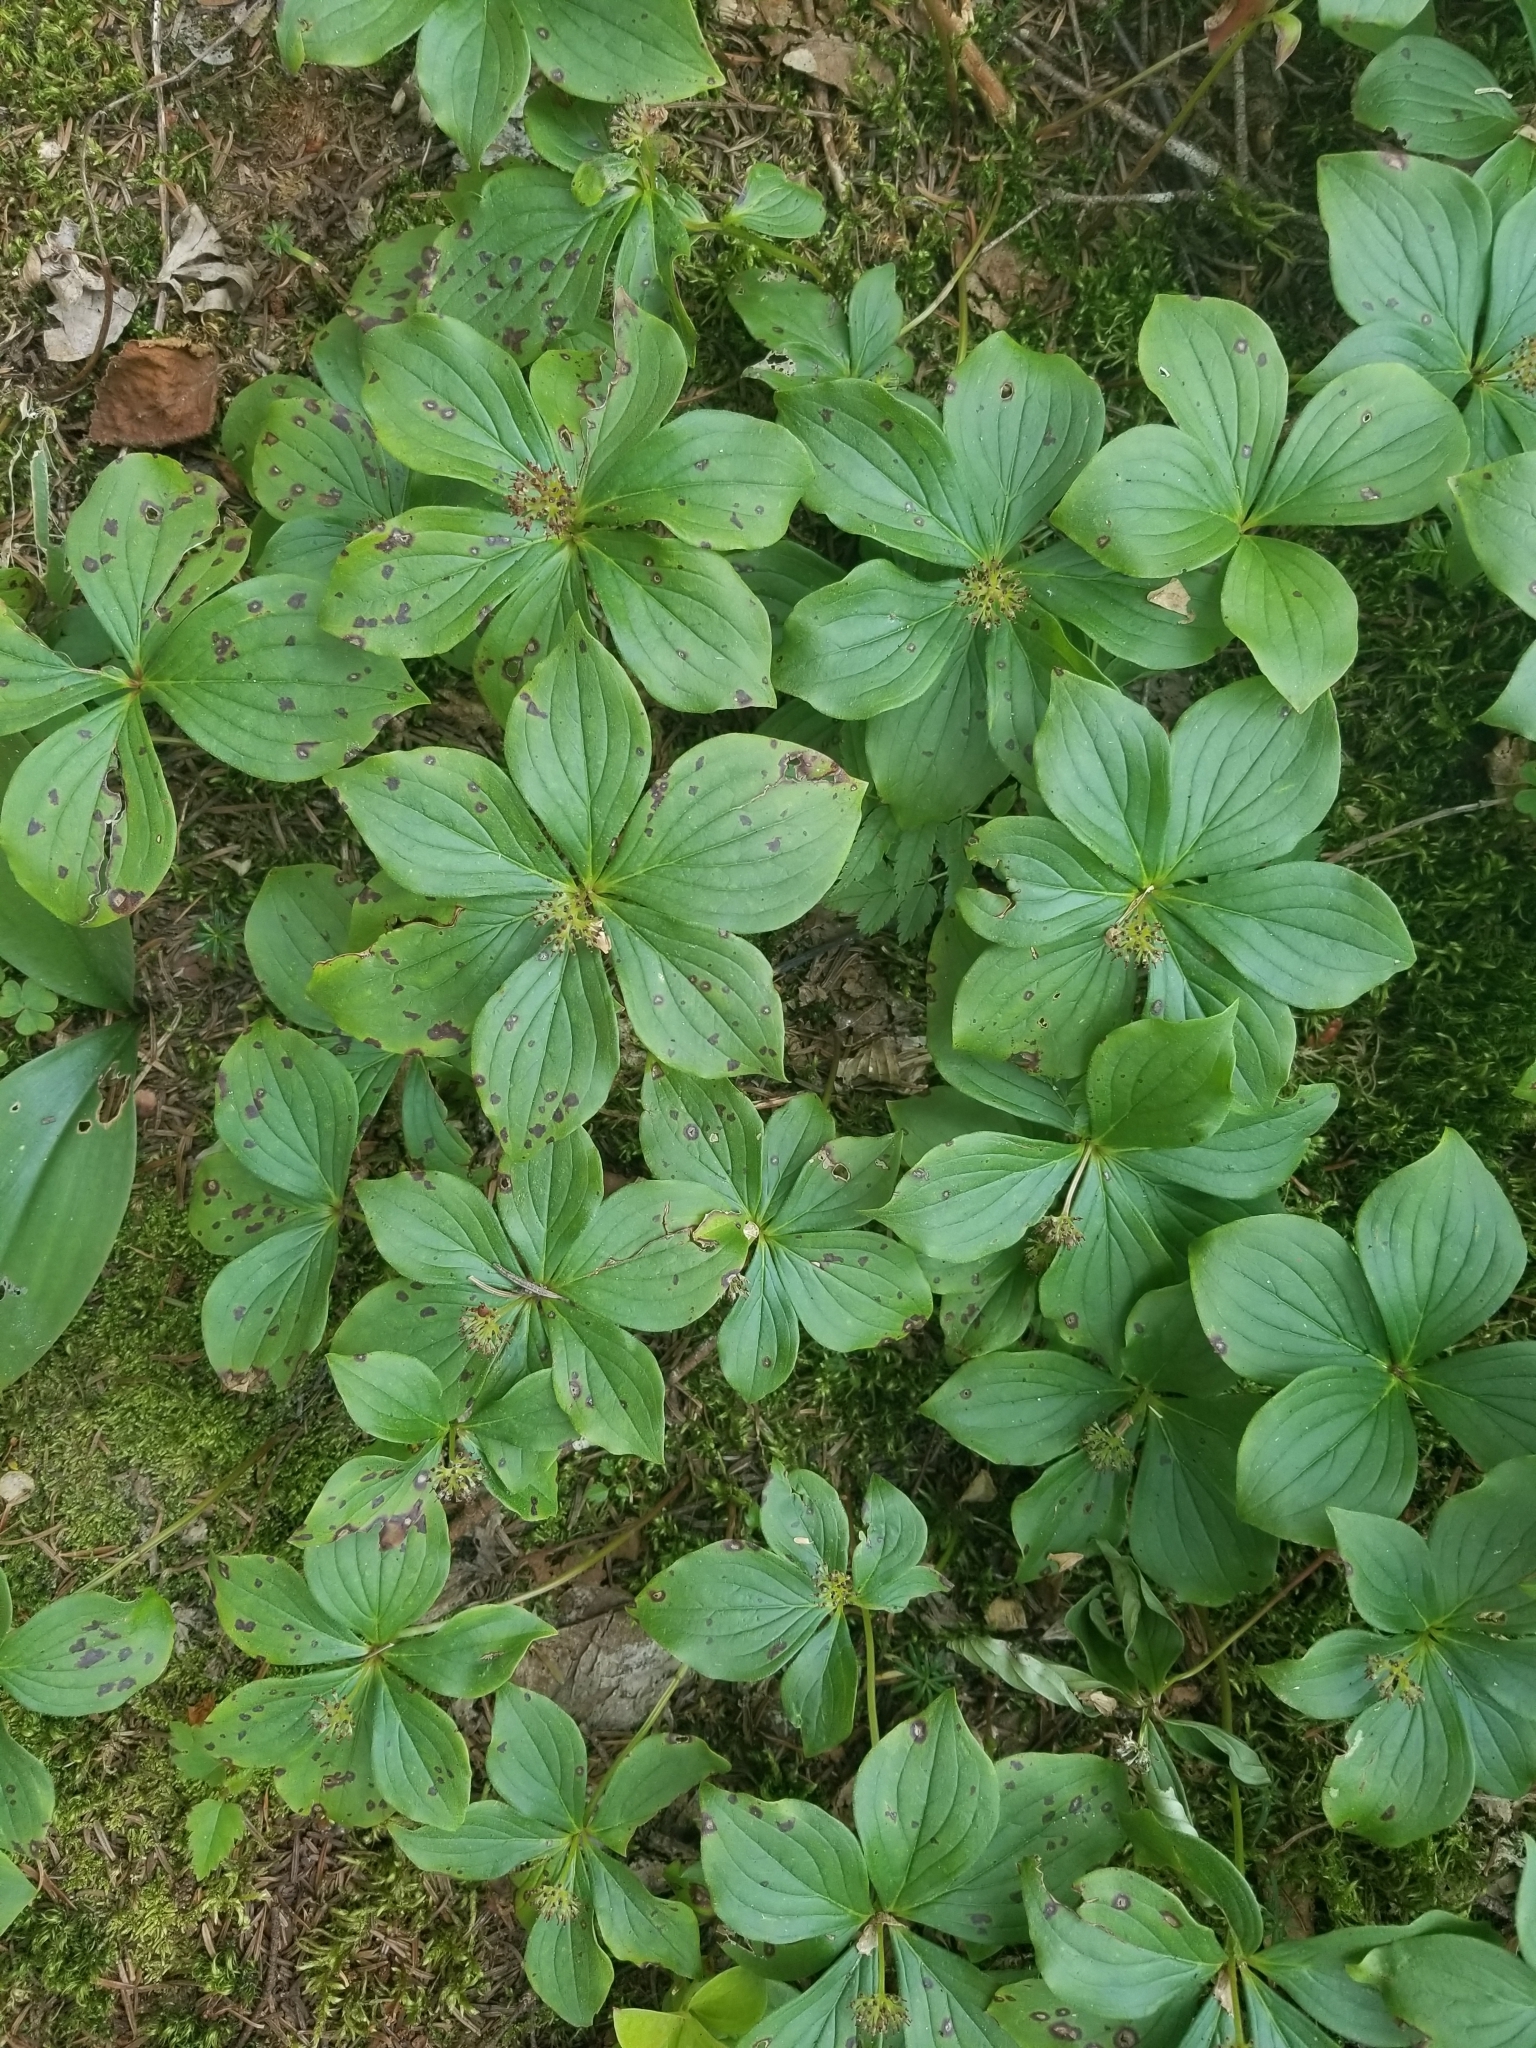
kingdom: Plantae
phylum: Tracheophyta
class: Magnoliopsida
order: Cornales
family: Cornaceae
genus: Cornus
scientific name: Cornus canadensis
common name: Creeping dogwood
